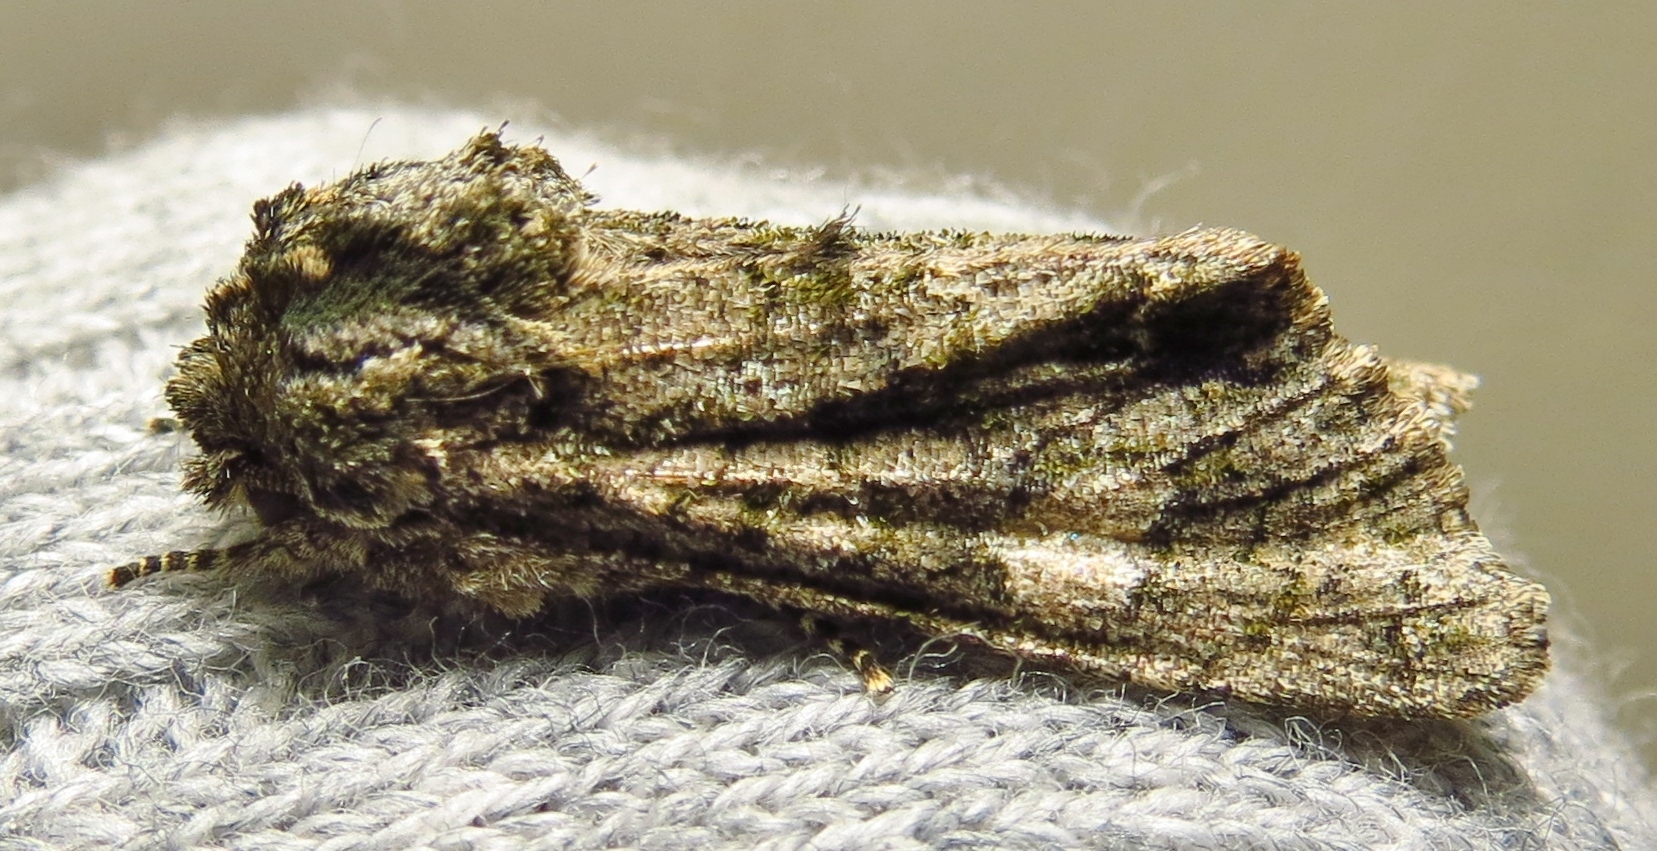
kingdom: Animalia
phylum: Arthropoda
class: Insecta
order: Lepidoptera
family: Noctuidae
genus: Psaphida
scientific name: Psaphida resumens
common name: Figure-eight sallow
